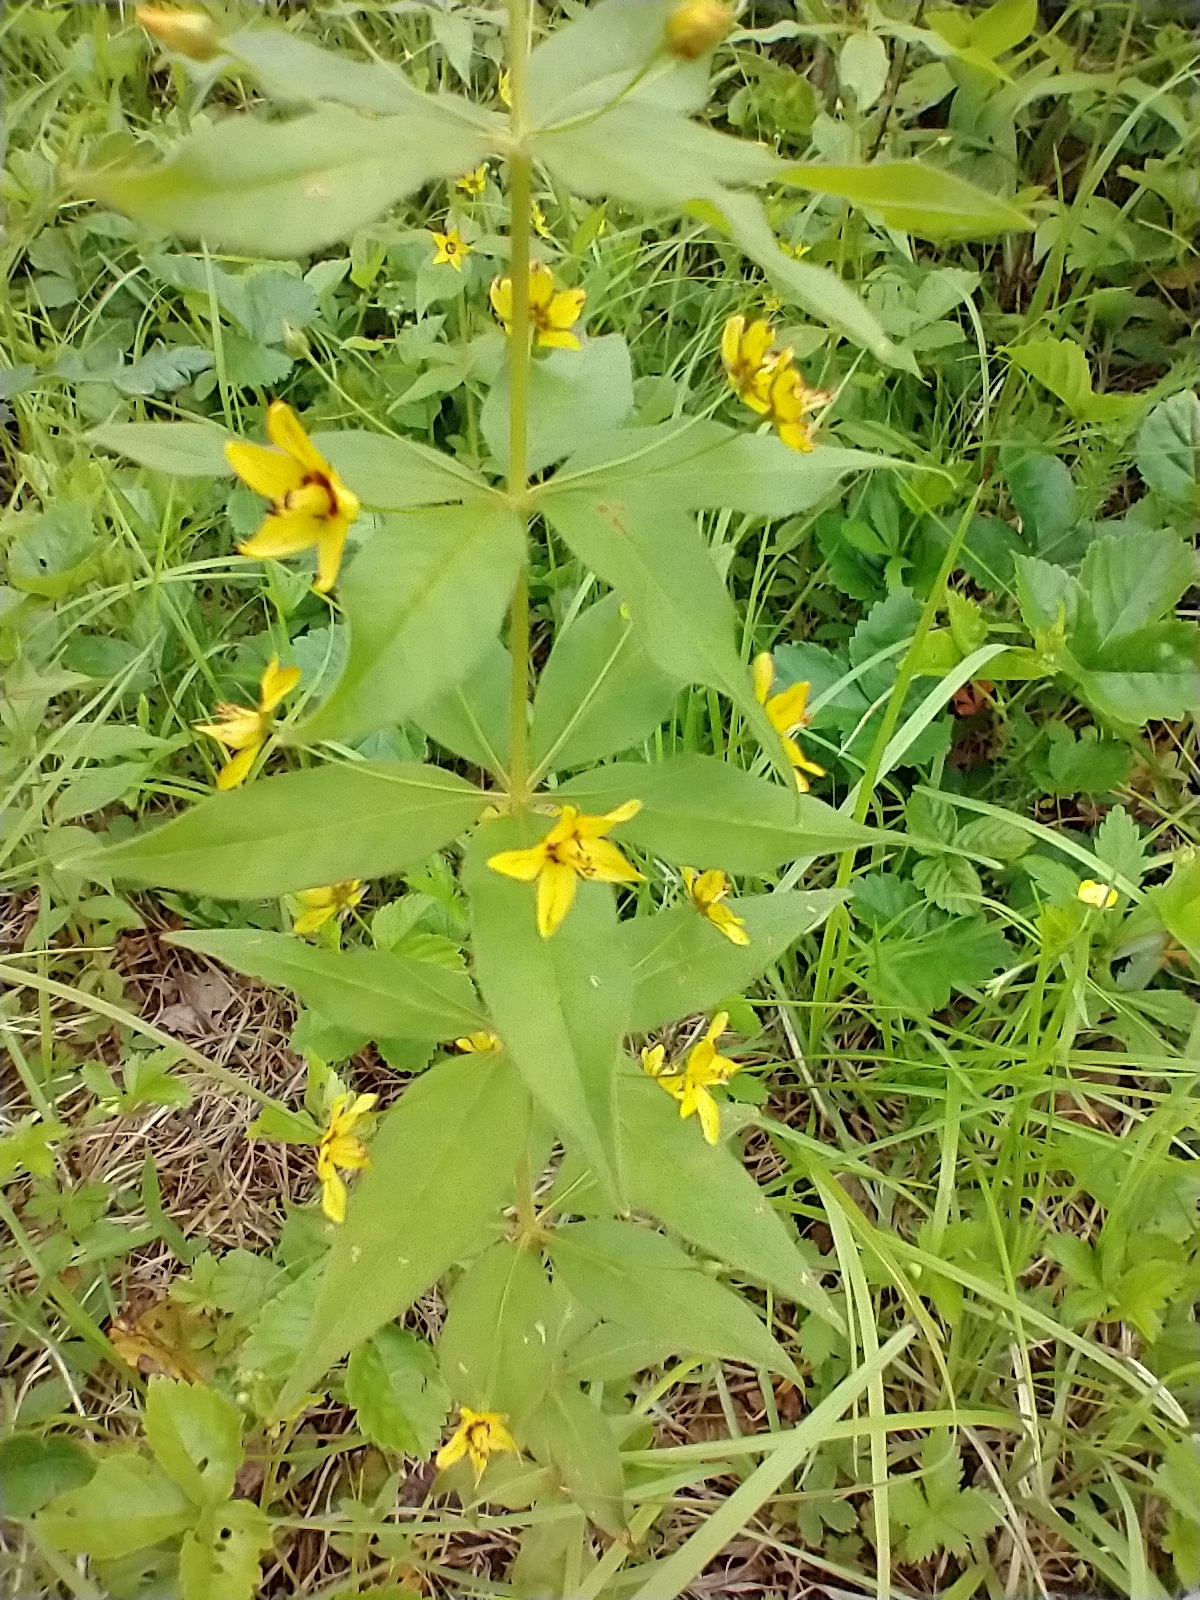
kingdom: Plantae
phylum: Tracheophyta
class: Magnoliopsida
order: Ericales
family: Primulaceae
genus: Lysimachia
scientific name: Lysimachia quadrifolia
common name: Whorled loosestrife
